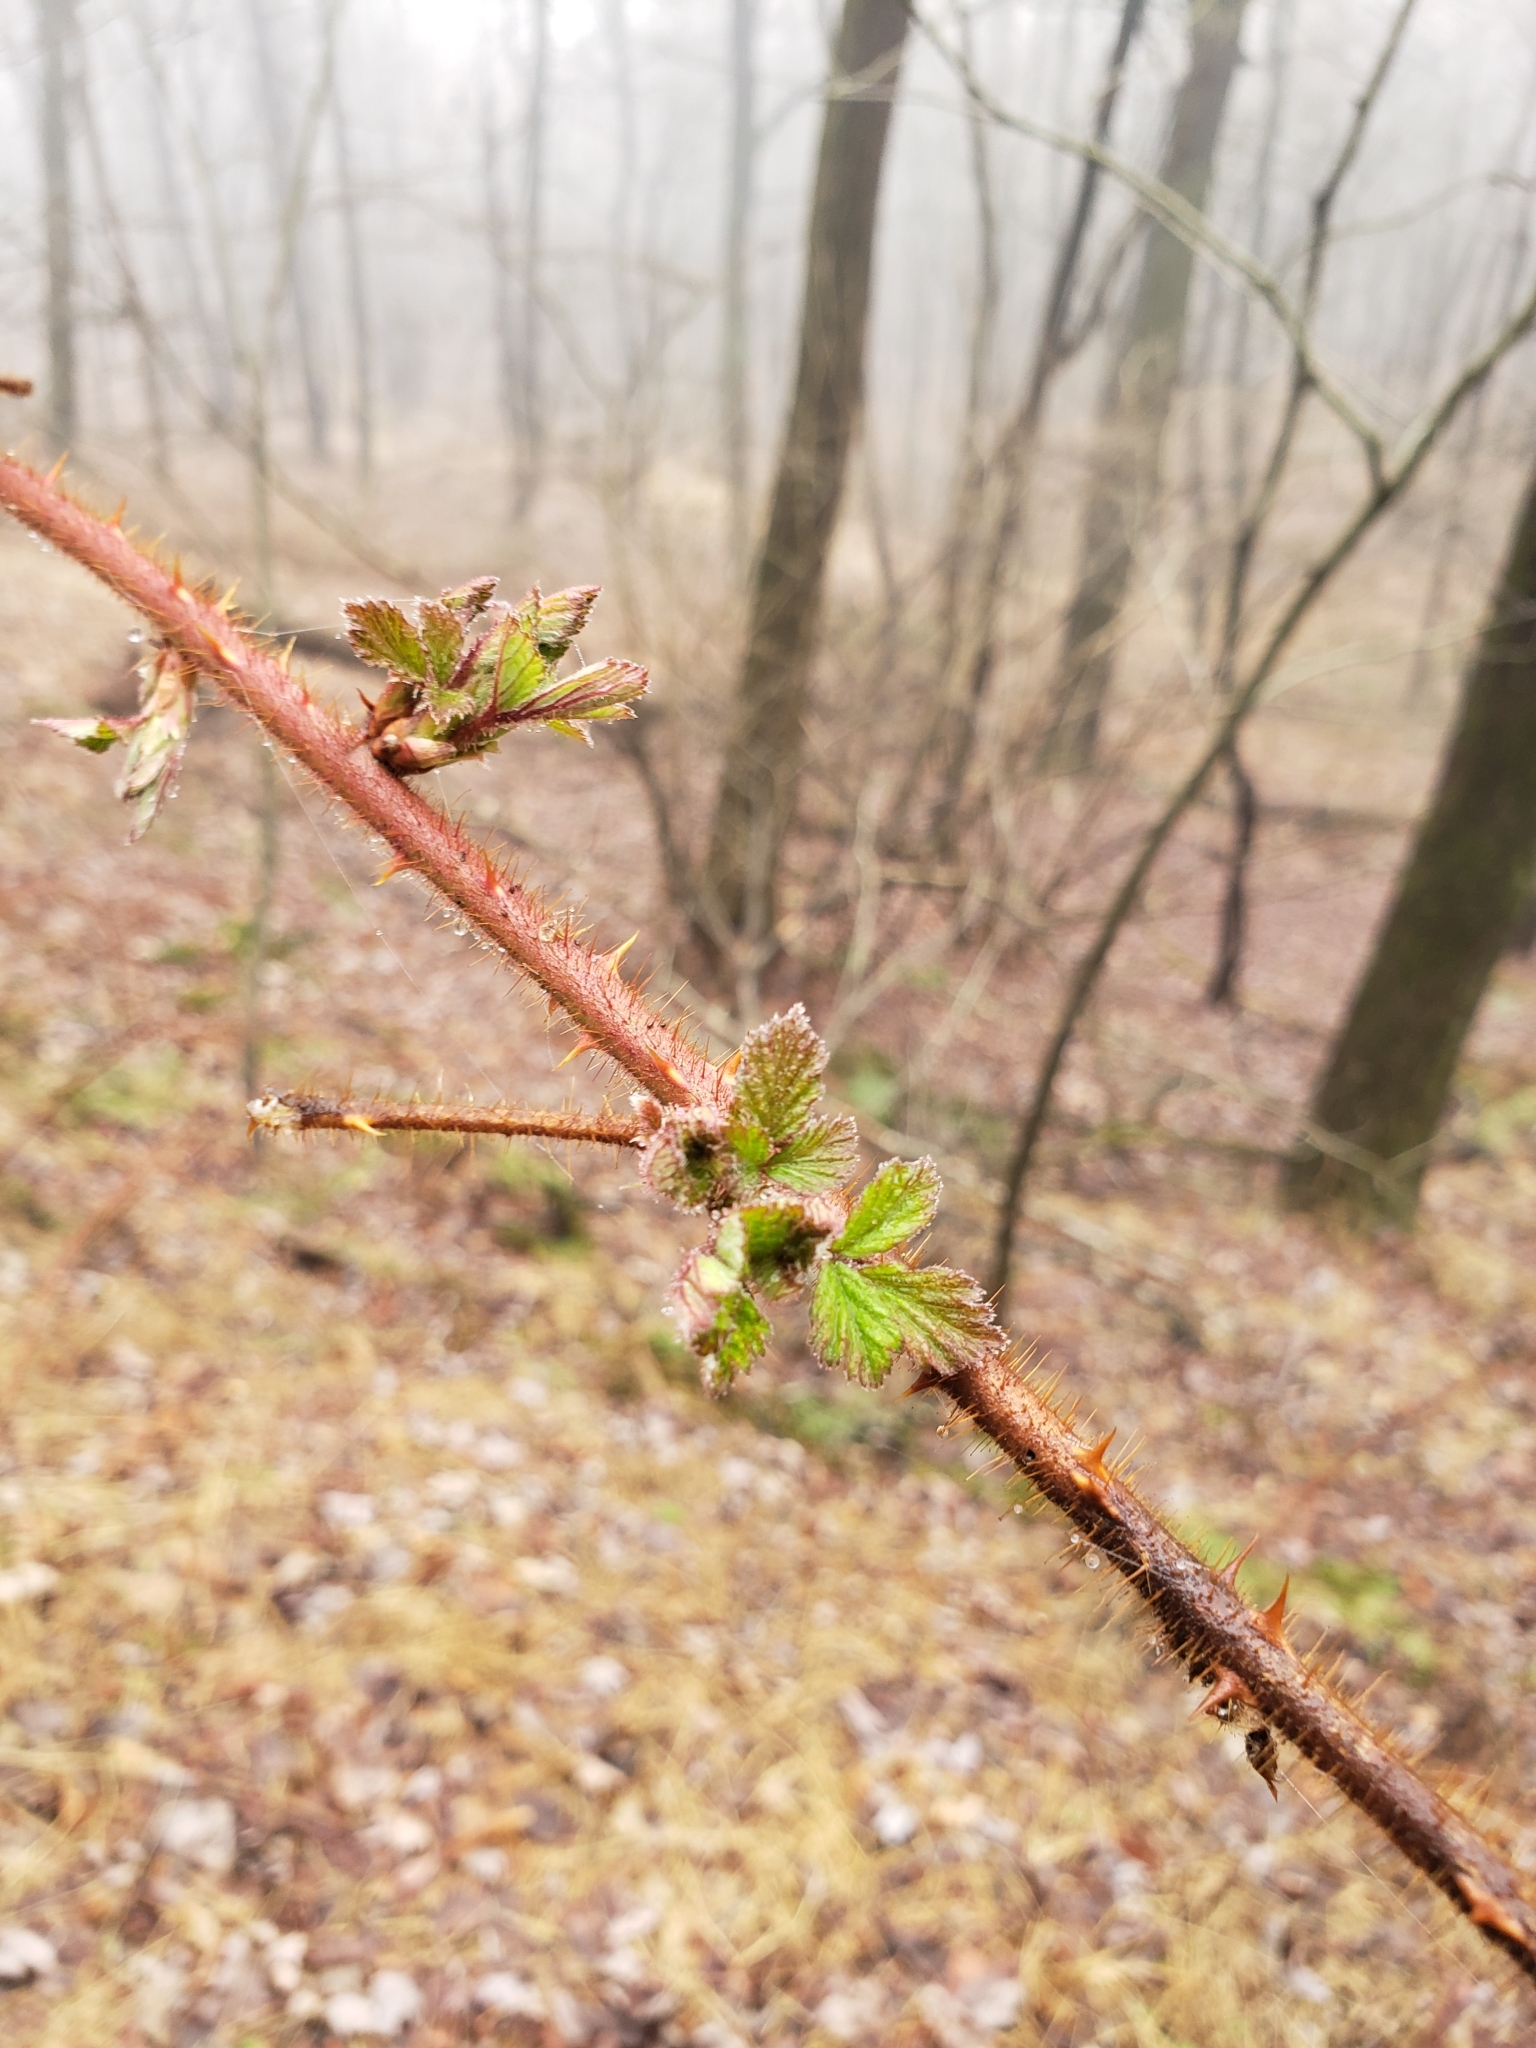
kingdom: Plantae
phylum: Tracheophyta
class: Magnoliopsida
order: Rosales
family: Rosaceae
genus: Rubus
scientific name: Rubus phoenicolasius
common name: Japanese wineberry
